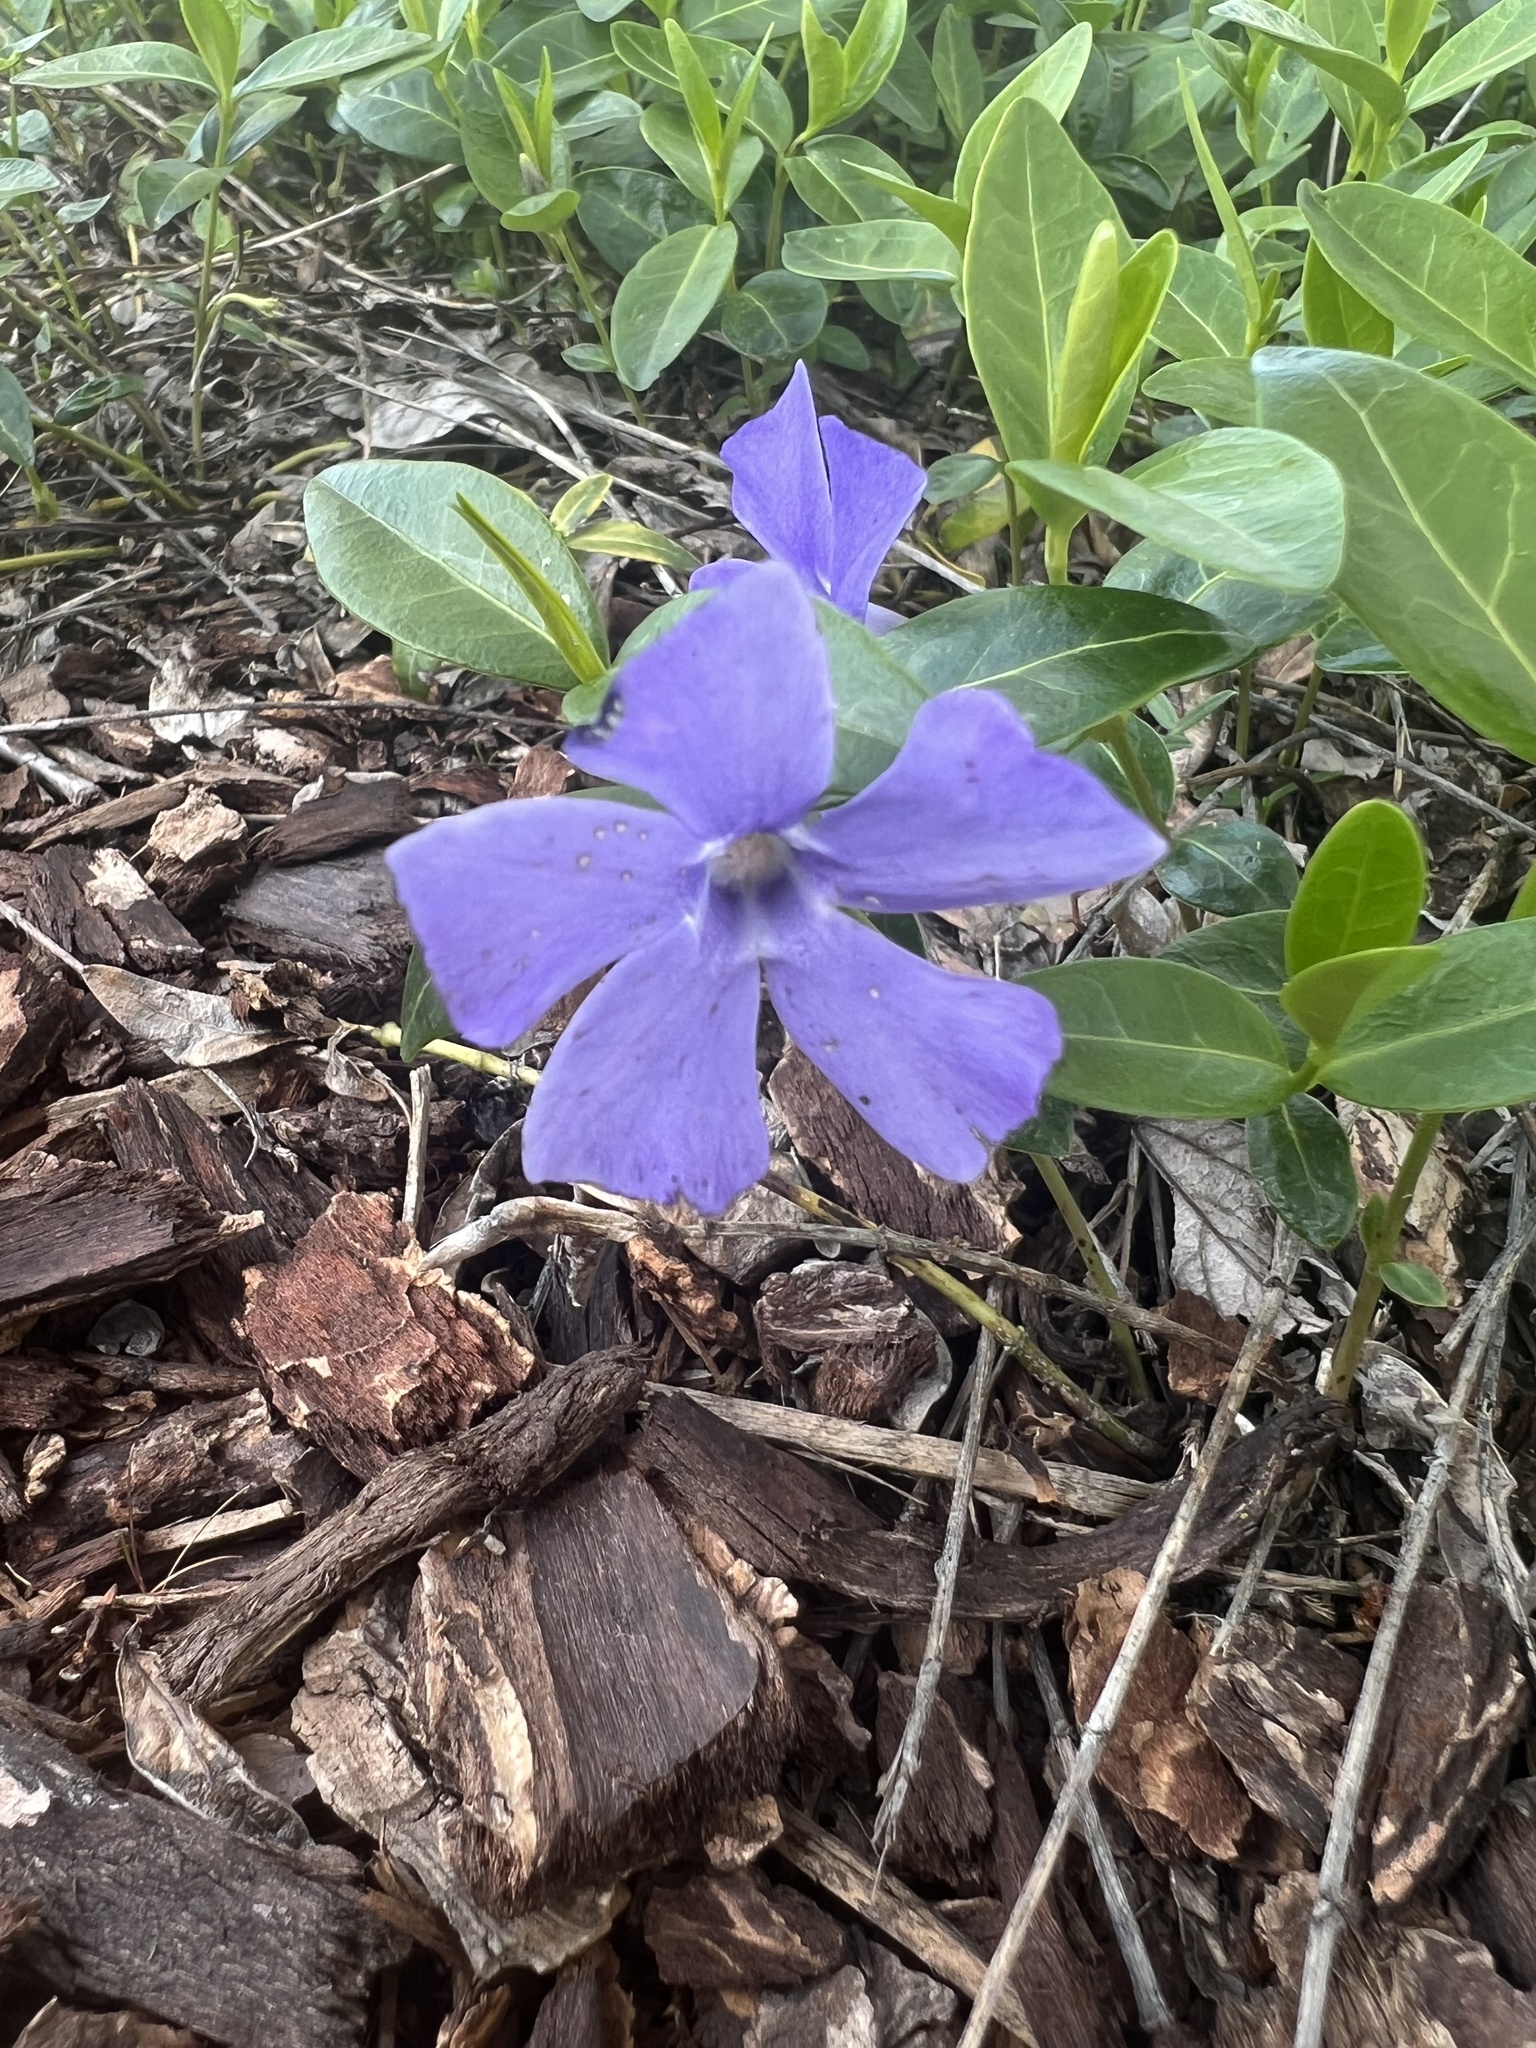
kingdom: Plantae
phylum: Tracheophyta
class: Magnoliopsida
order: Gentianales
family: Apocynaceae
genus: Vinca
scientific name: Vinca minor
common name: Lesser periwinkle
